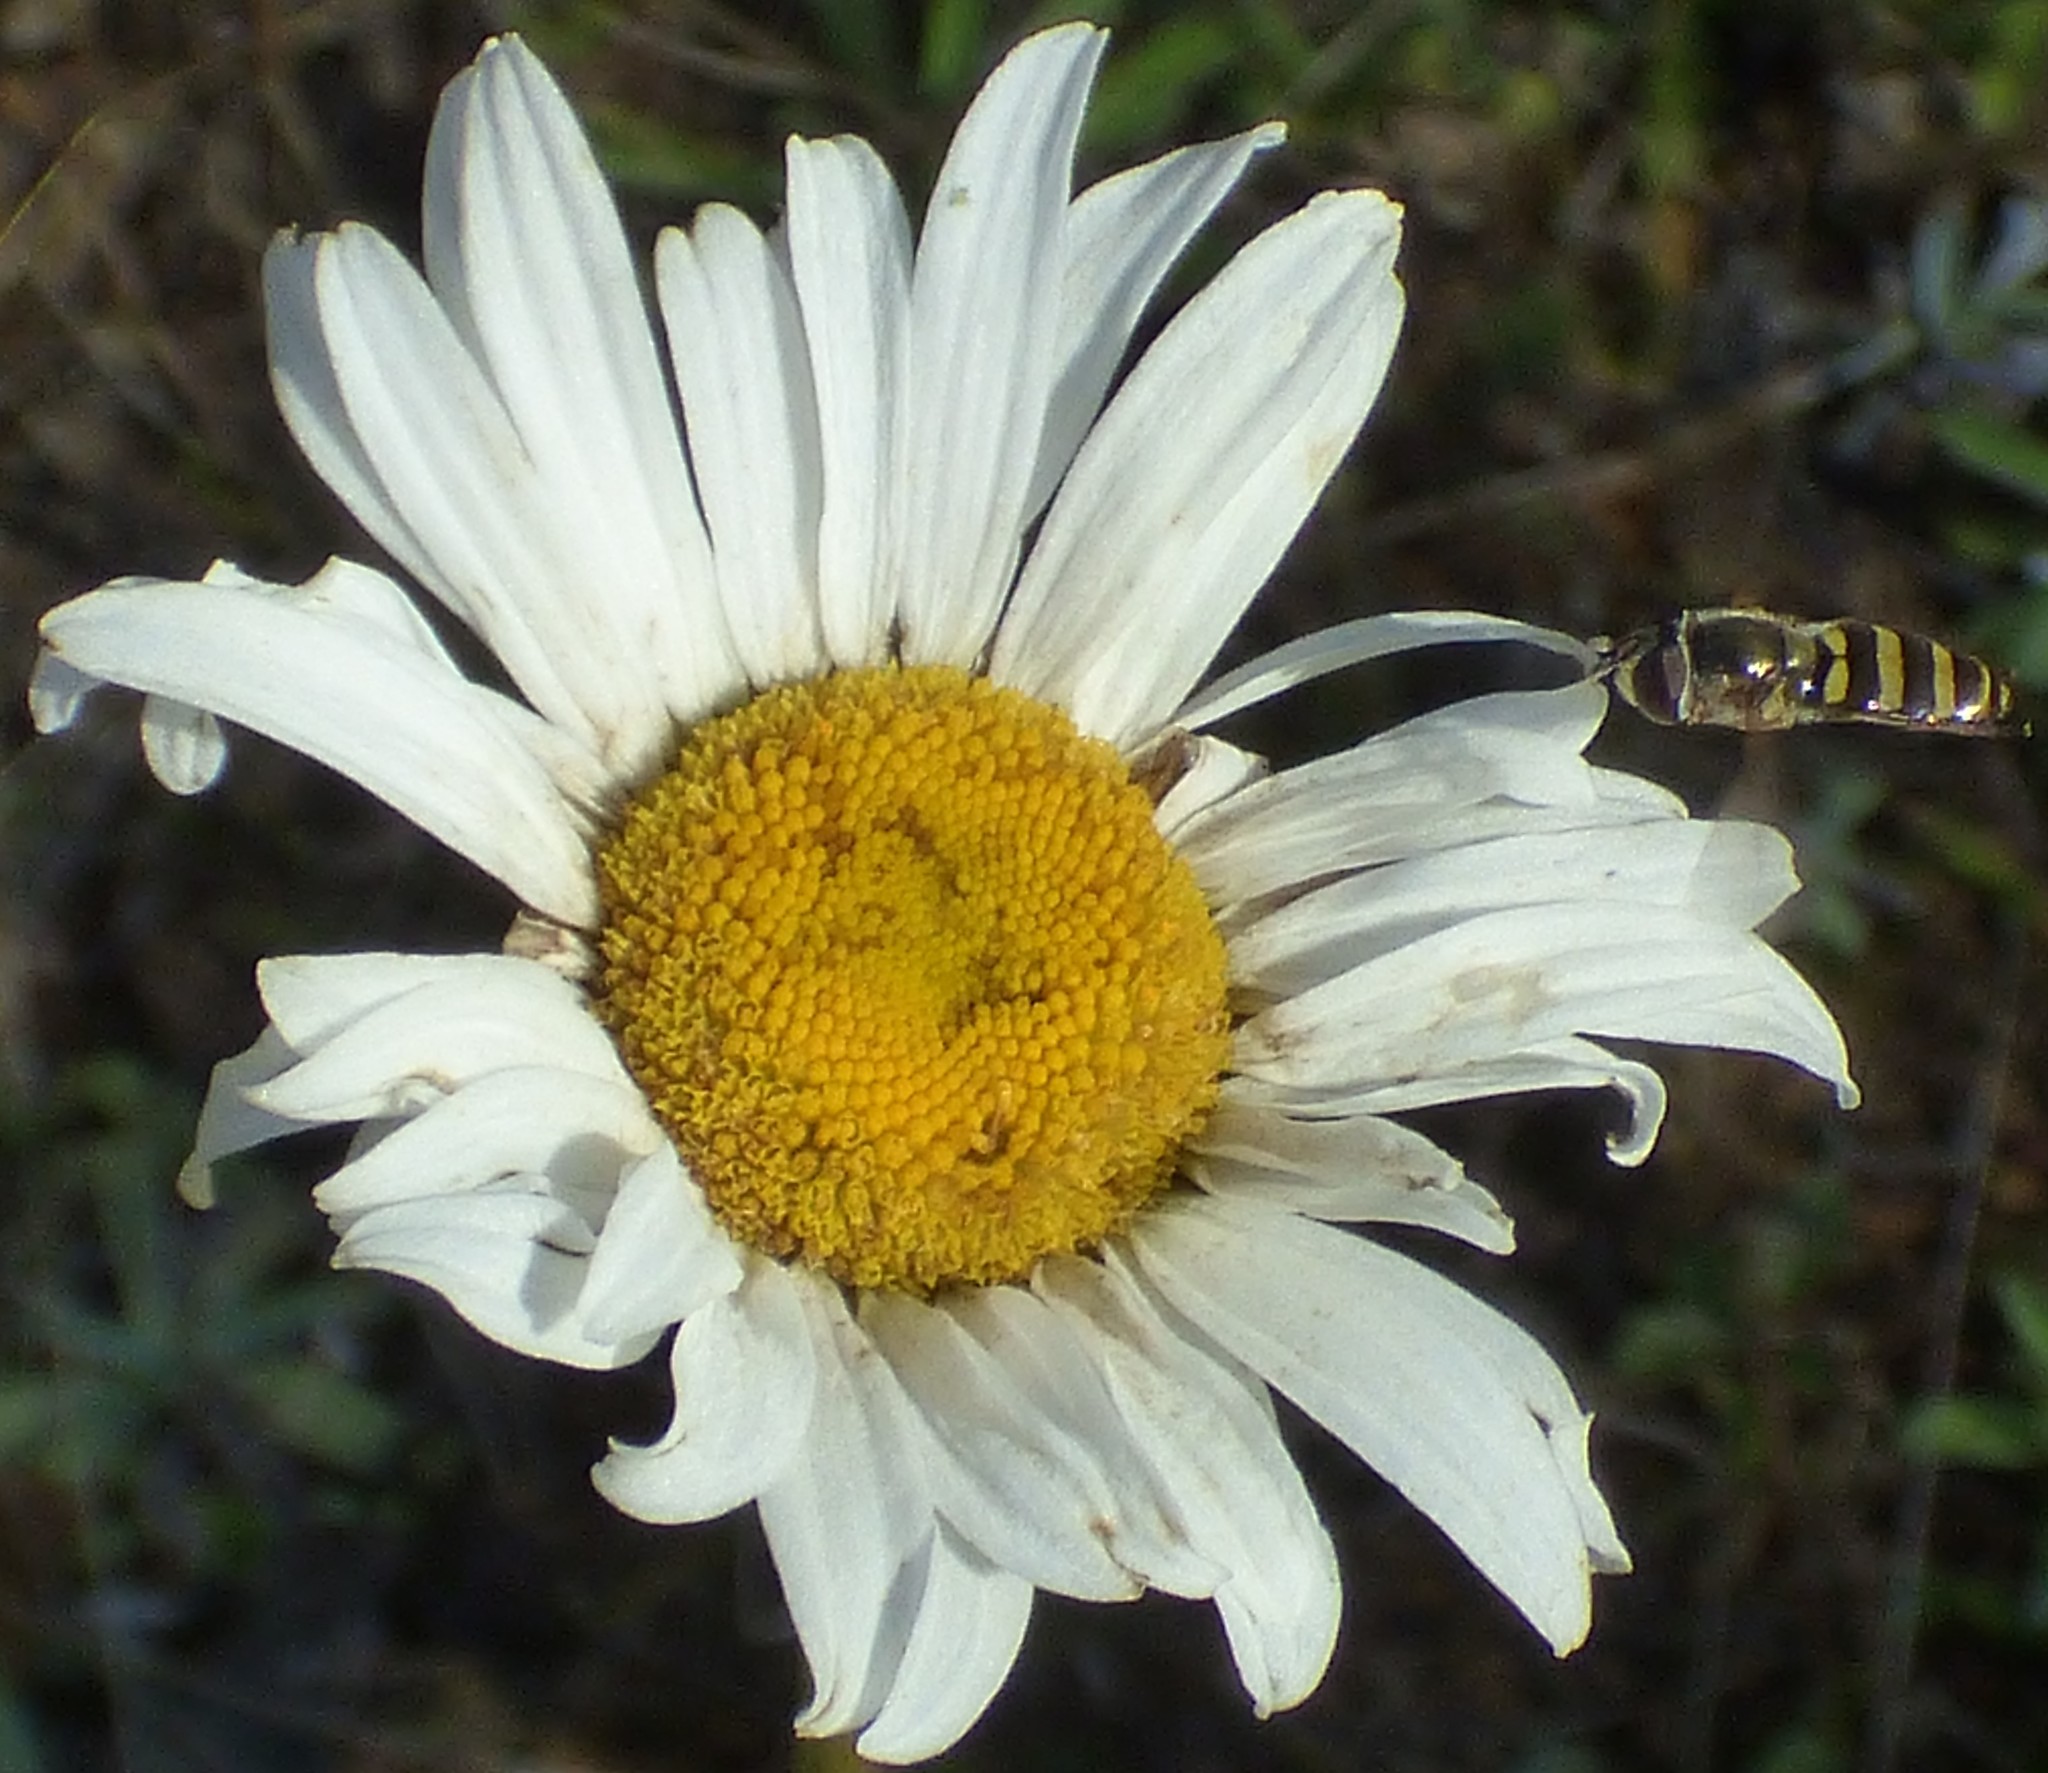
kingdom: Plantae
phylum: Tracheophyta
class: Magnoliopsida
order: Asterales
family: Asteraceae
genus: Leucanthemum
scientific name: Leucanthemum vulgare
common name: Oxeye daisy
